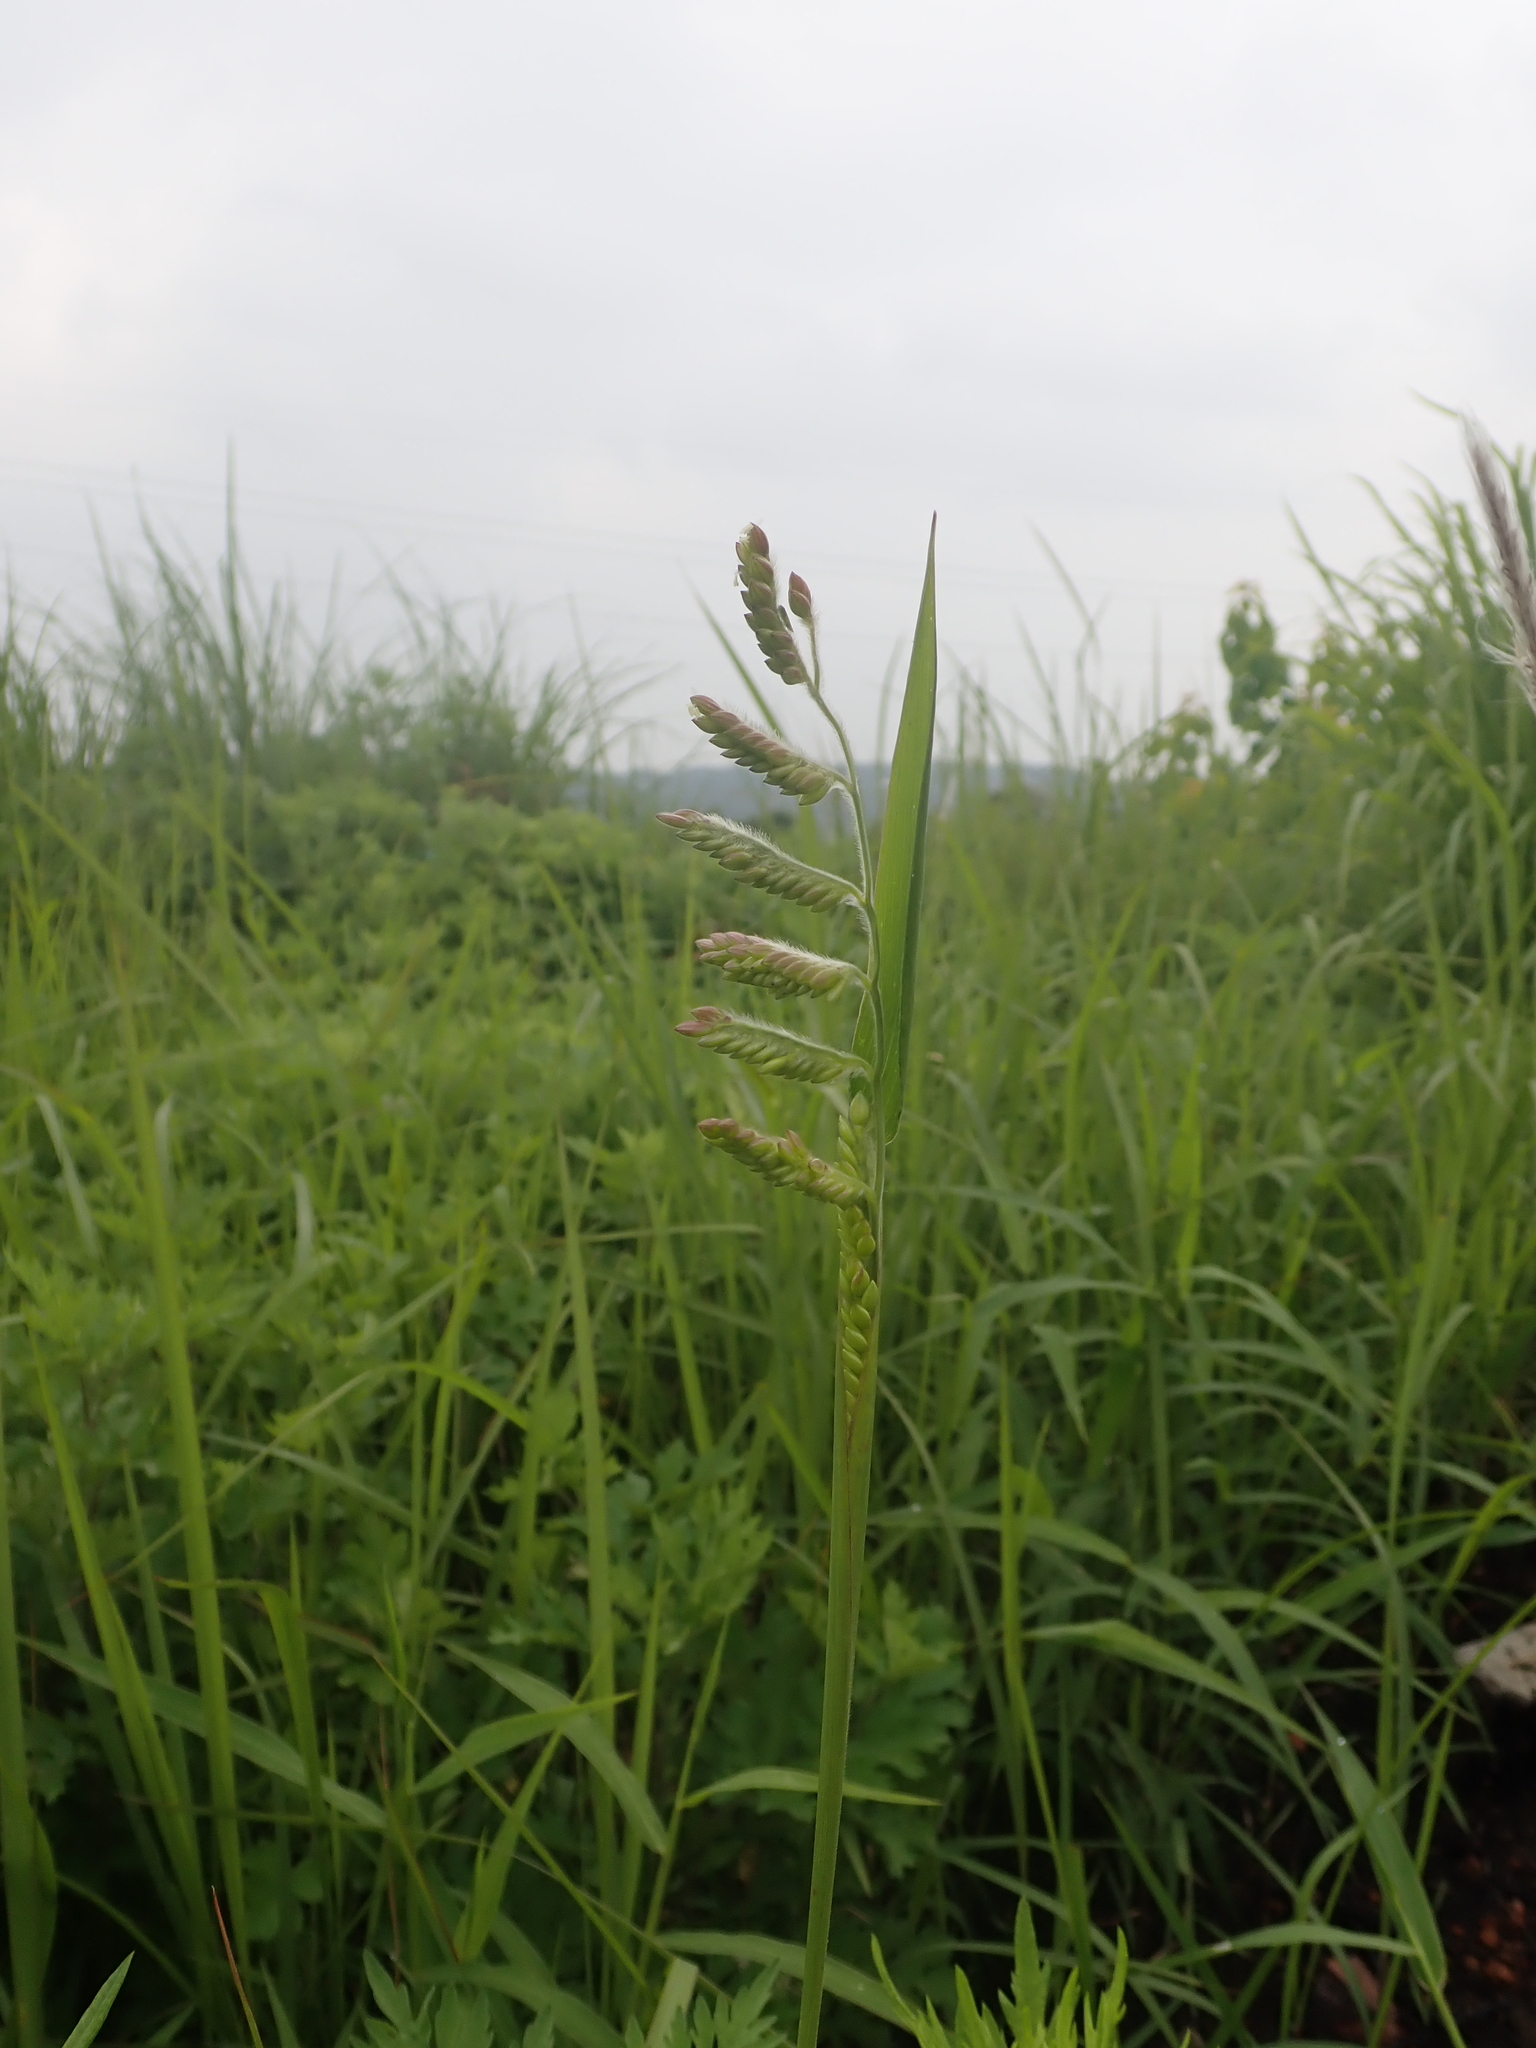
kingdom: Plantae
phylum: Tracheophyta
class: Liliopsida
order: Poales
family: Poaceae
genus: Eriochloa
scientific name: Eriochloa villosa
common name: Hairy cupgrass
